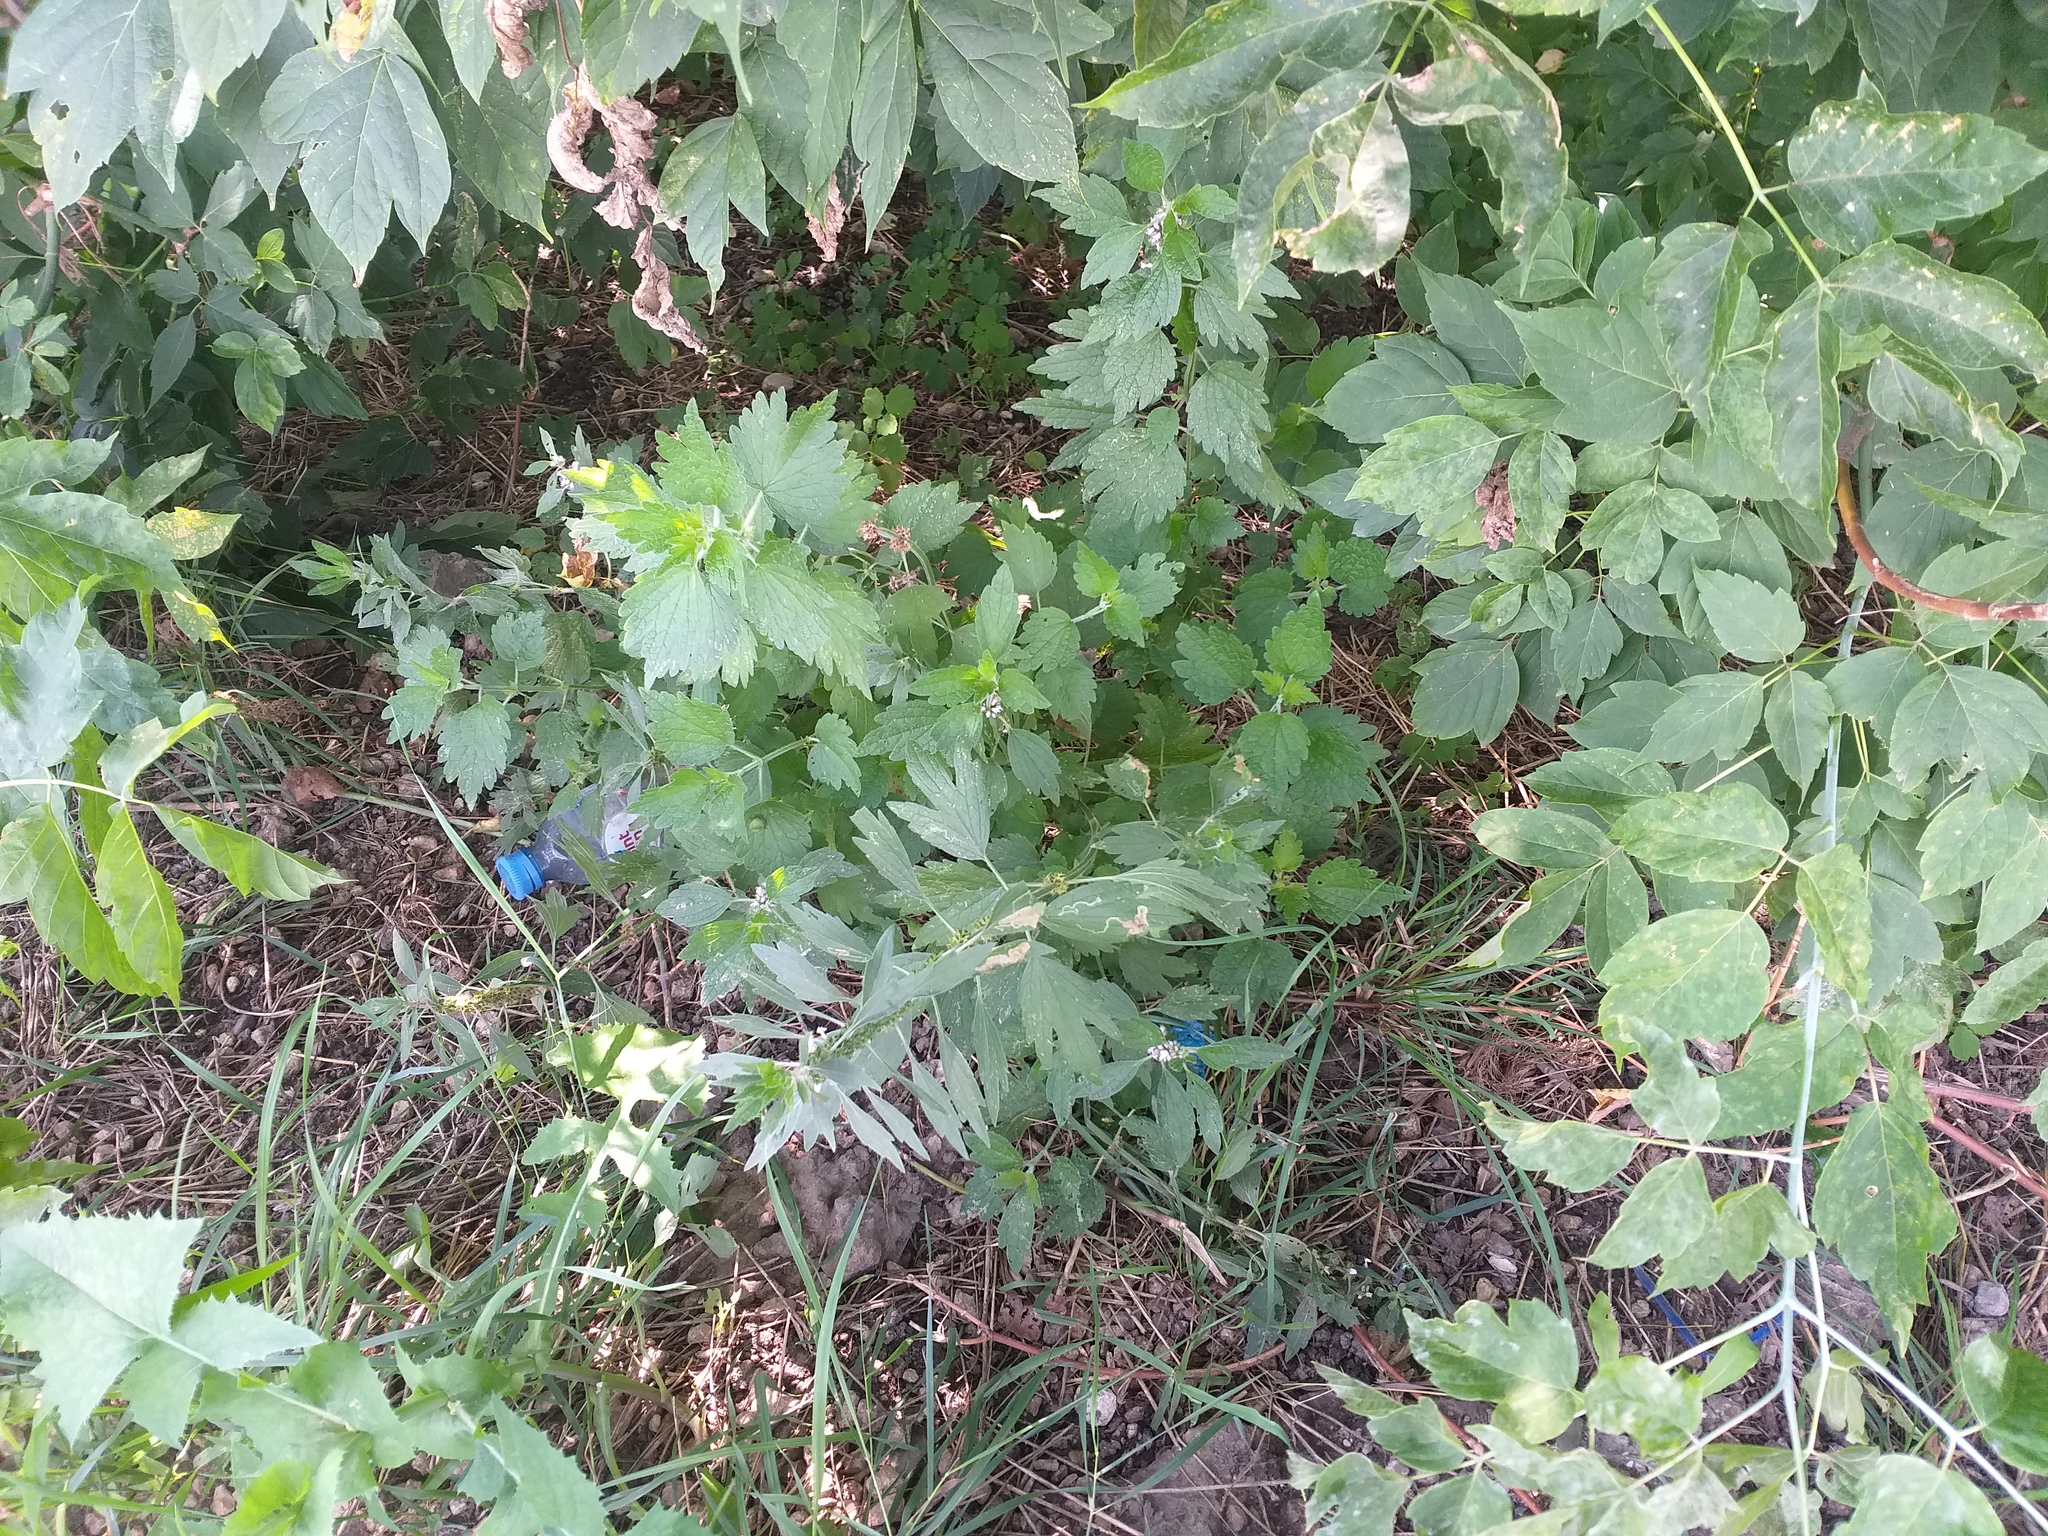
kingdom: Plantae
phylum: Tracheophyta
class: Magnoliopsida
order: Lamiales
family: Lamiaceae
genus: Leonurus
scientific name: Leonurus quinquelobatus
